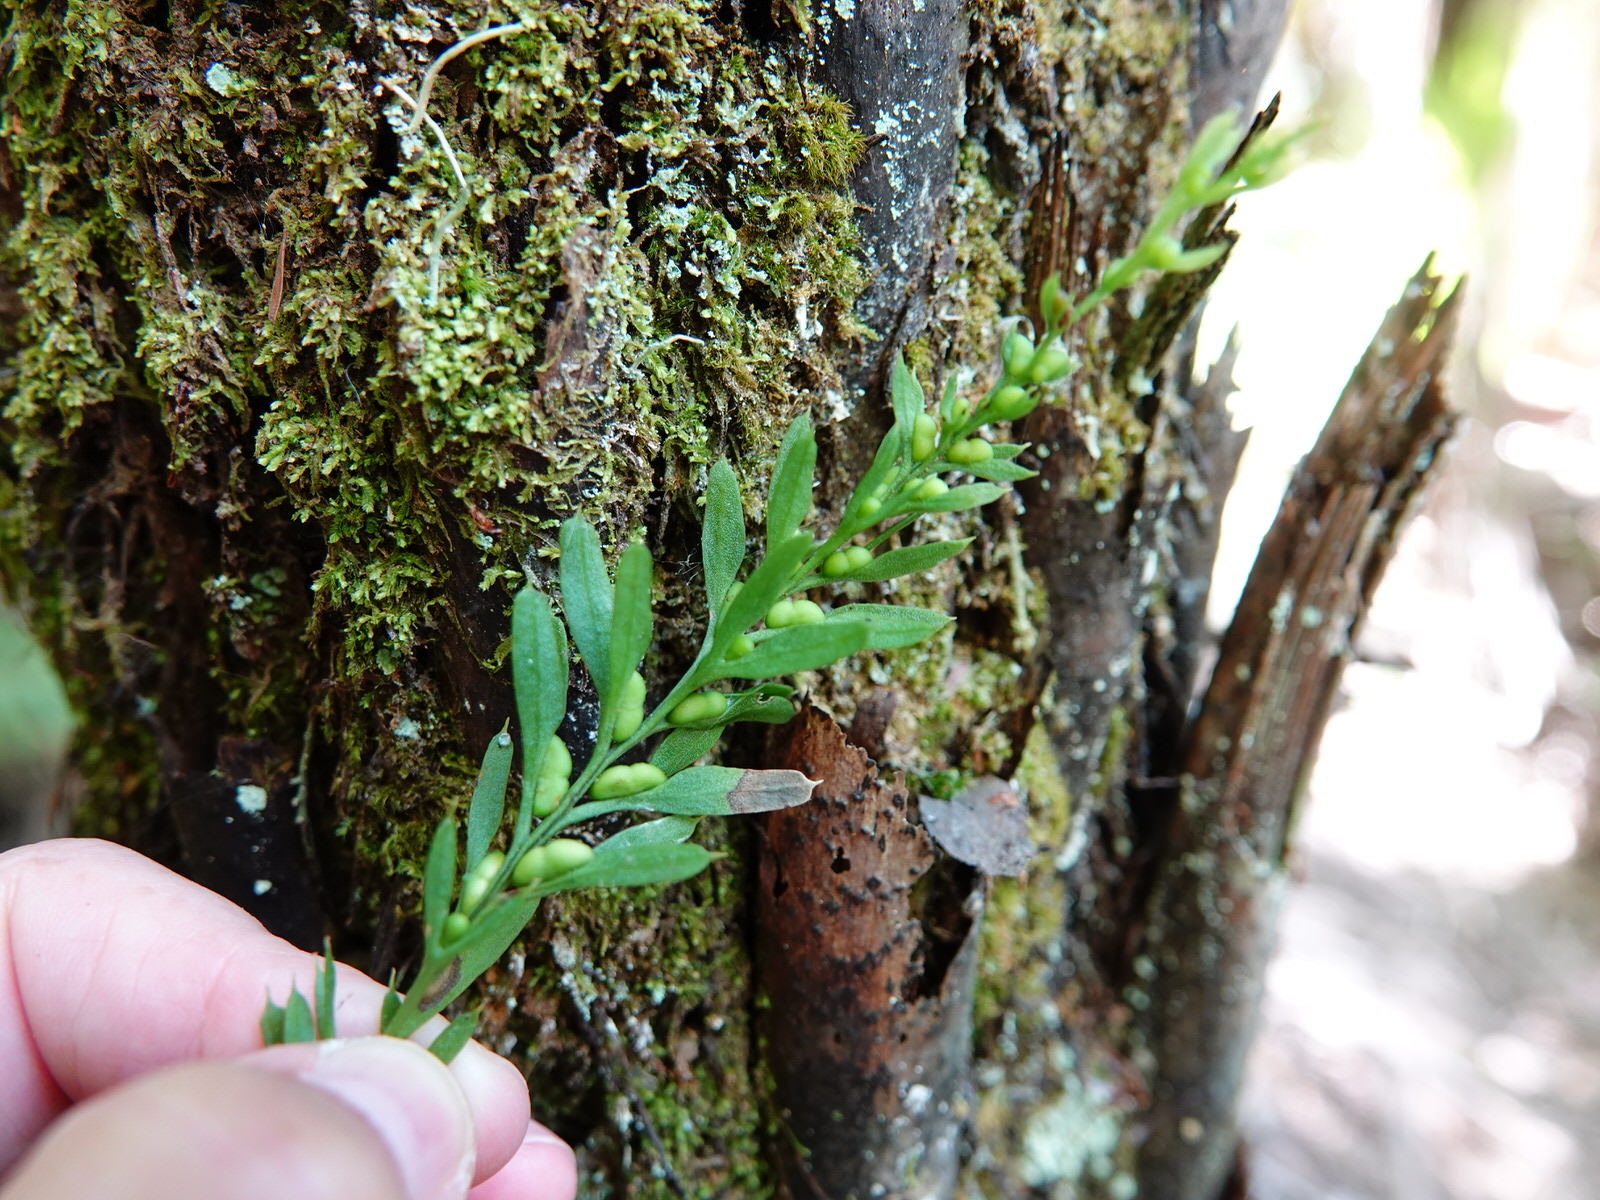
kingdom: Plantae
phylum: Tracheophyta
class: Polypodiopsida
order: Psilotales
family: Psilotaceae
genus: Tmesipteris
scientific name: Tmesipteris elongata
